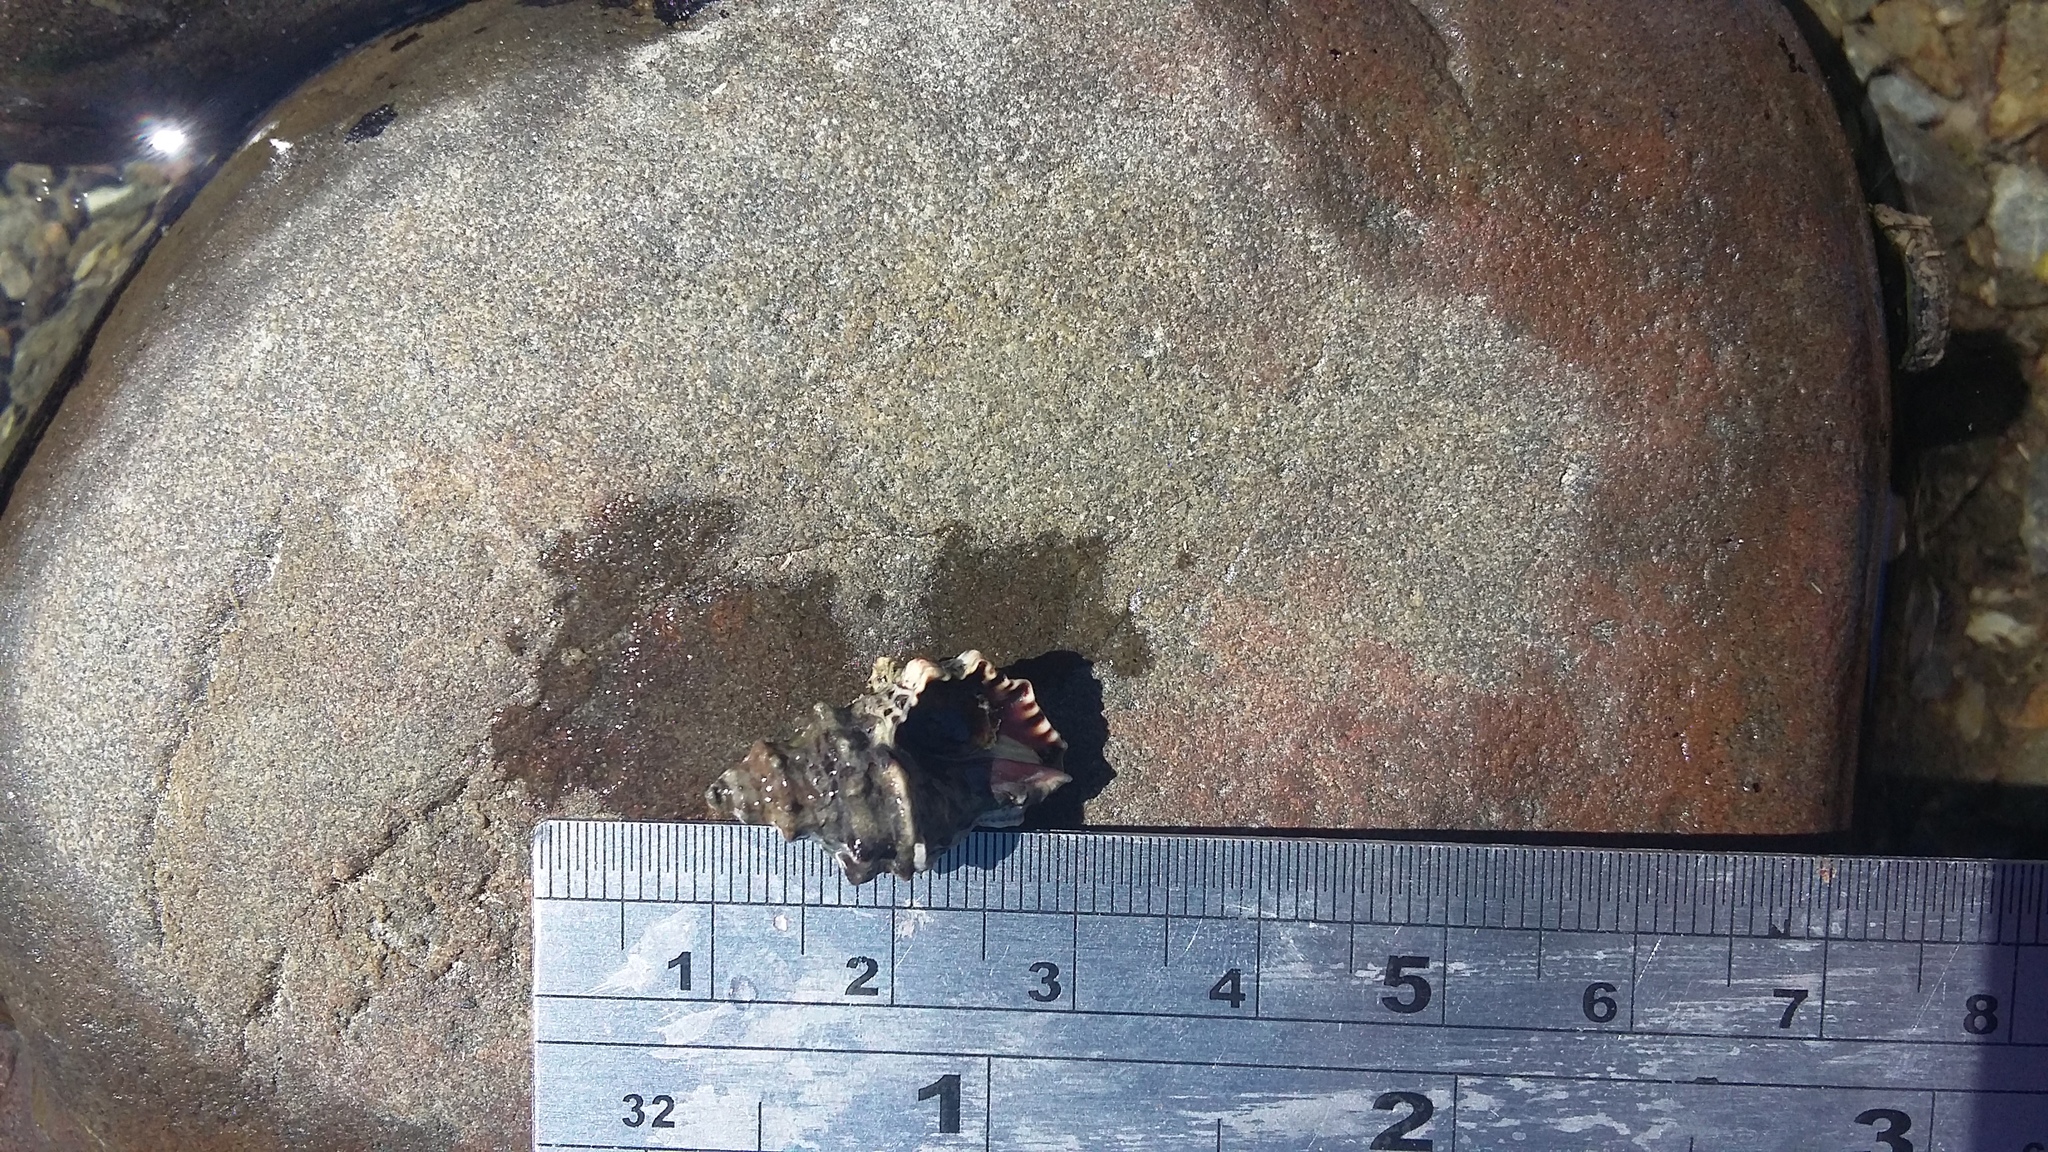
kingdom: Animalia
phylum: Mollusca
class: Gastropoda
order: Neogastropoda
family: Muricidae
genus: Haustrum
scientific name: Haustrum scobina
